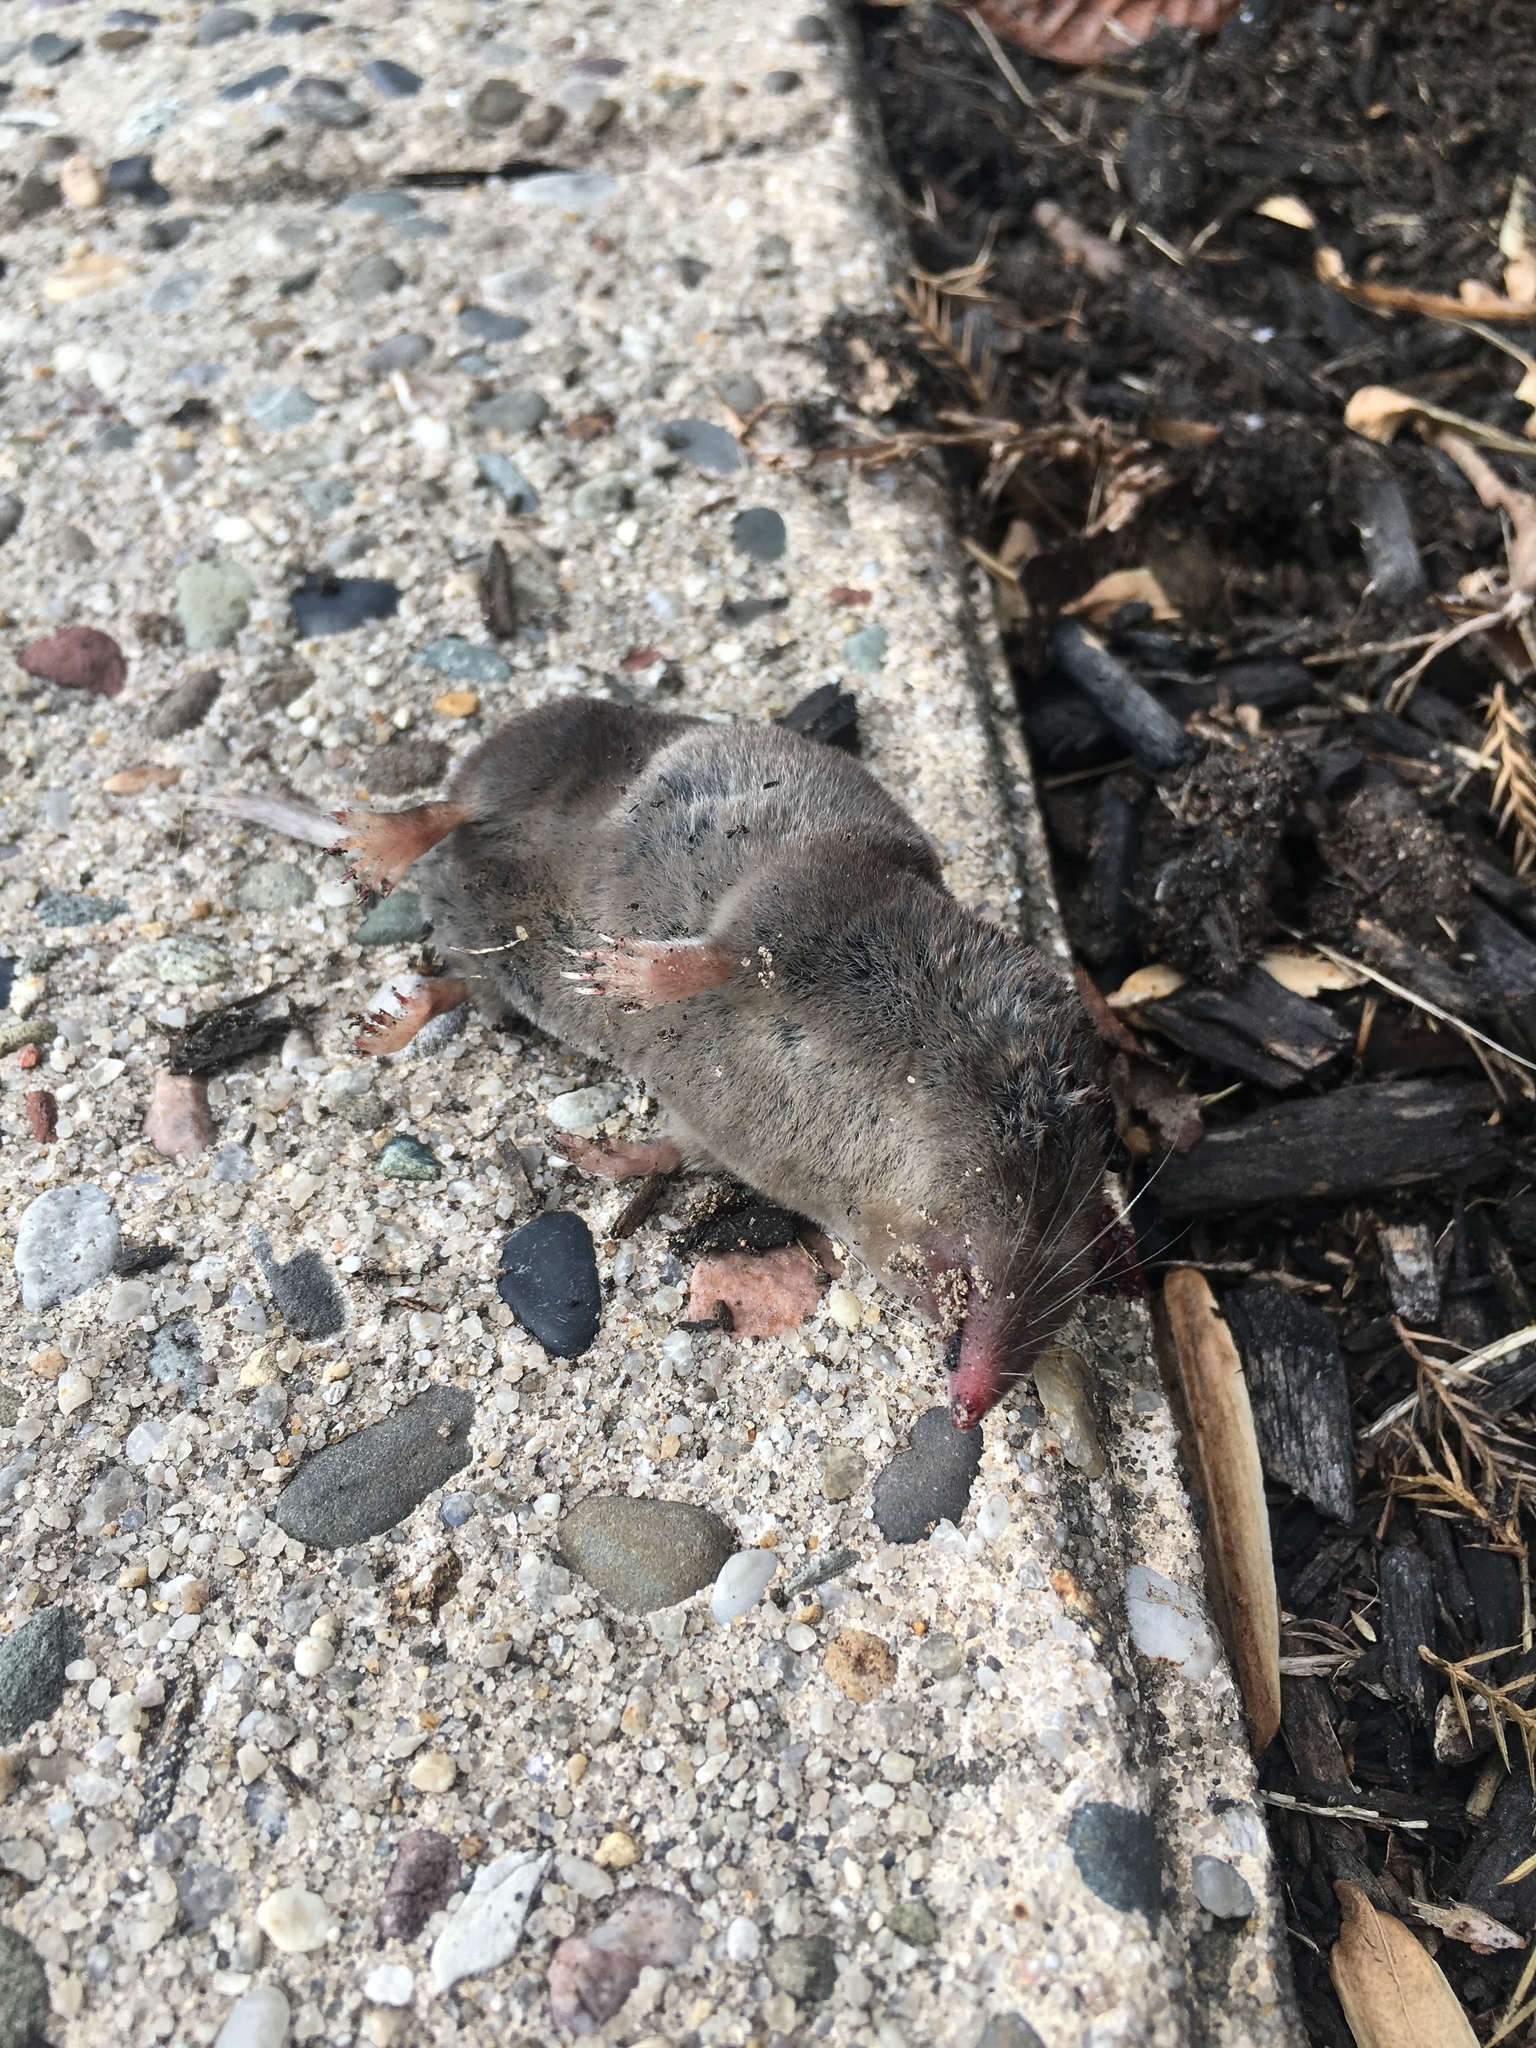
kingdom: Animalia
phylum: Chordata
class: Mammalia
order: Soricomorpha
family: Soricidae
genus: Blarina
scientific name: Blarina brevicauda
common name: Northern short-tailed shrew
